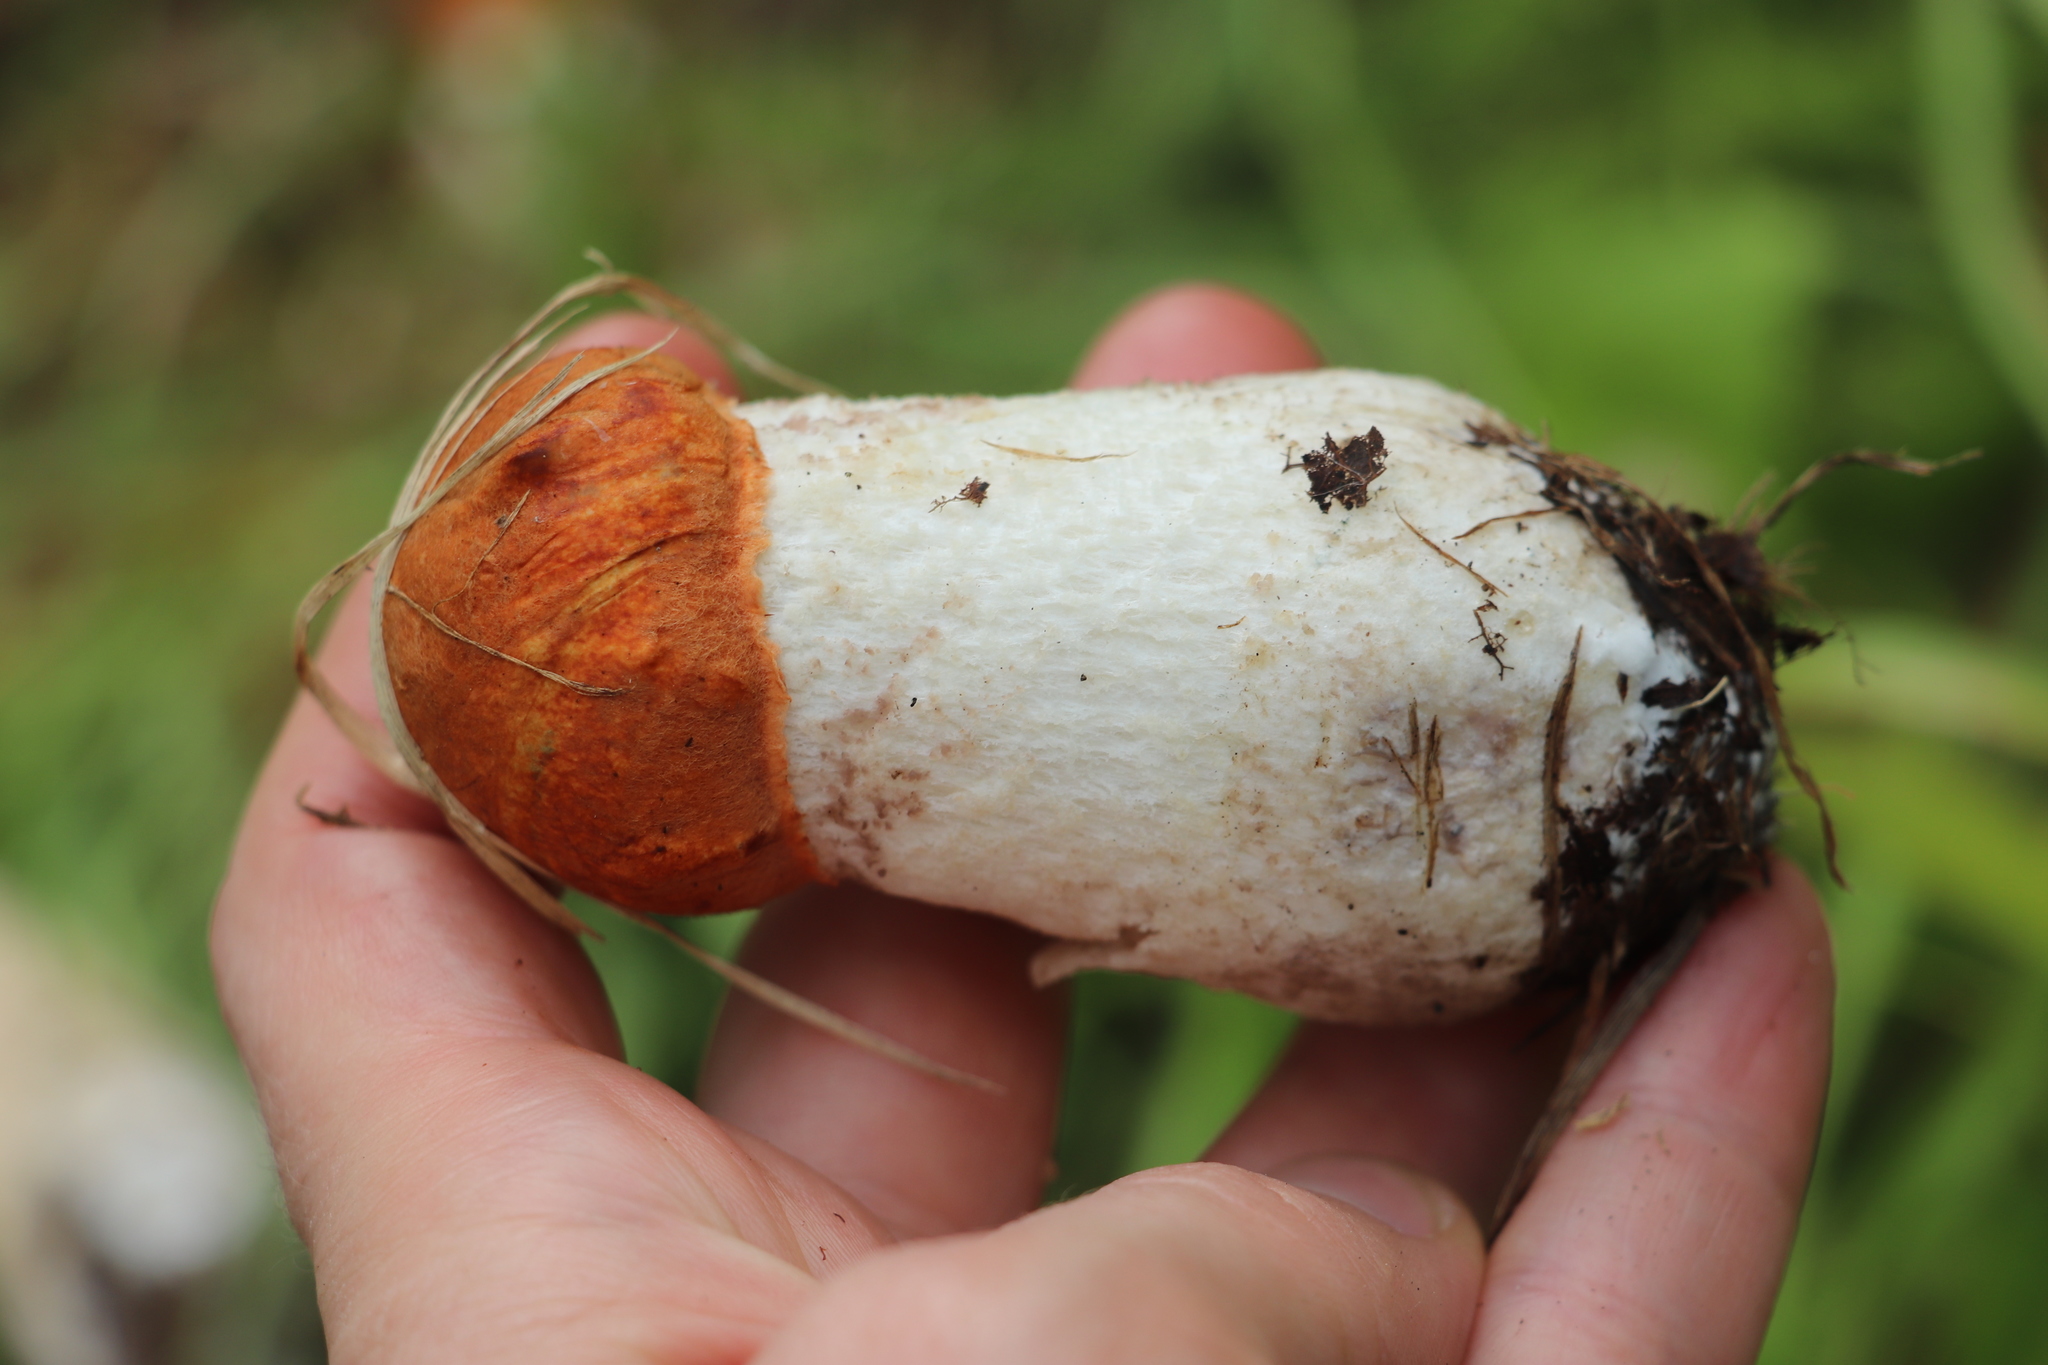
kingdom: Fungi
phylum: Basidiomycota
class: Agaricomycetes
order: Boletales
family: Boletaceae
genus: Leccinum
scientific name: Leccinum albostipitatum
